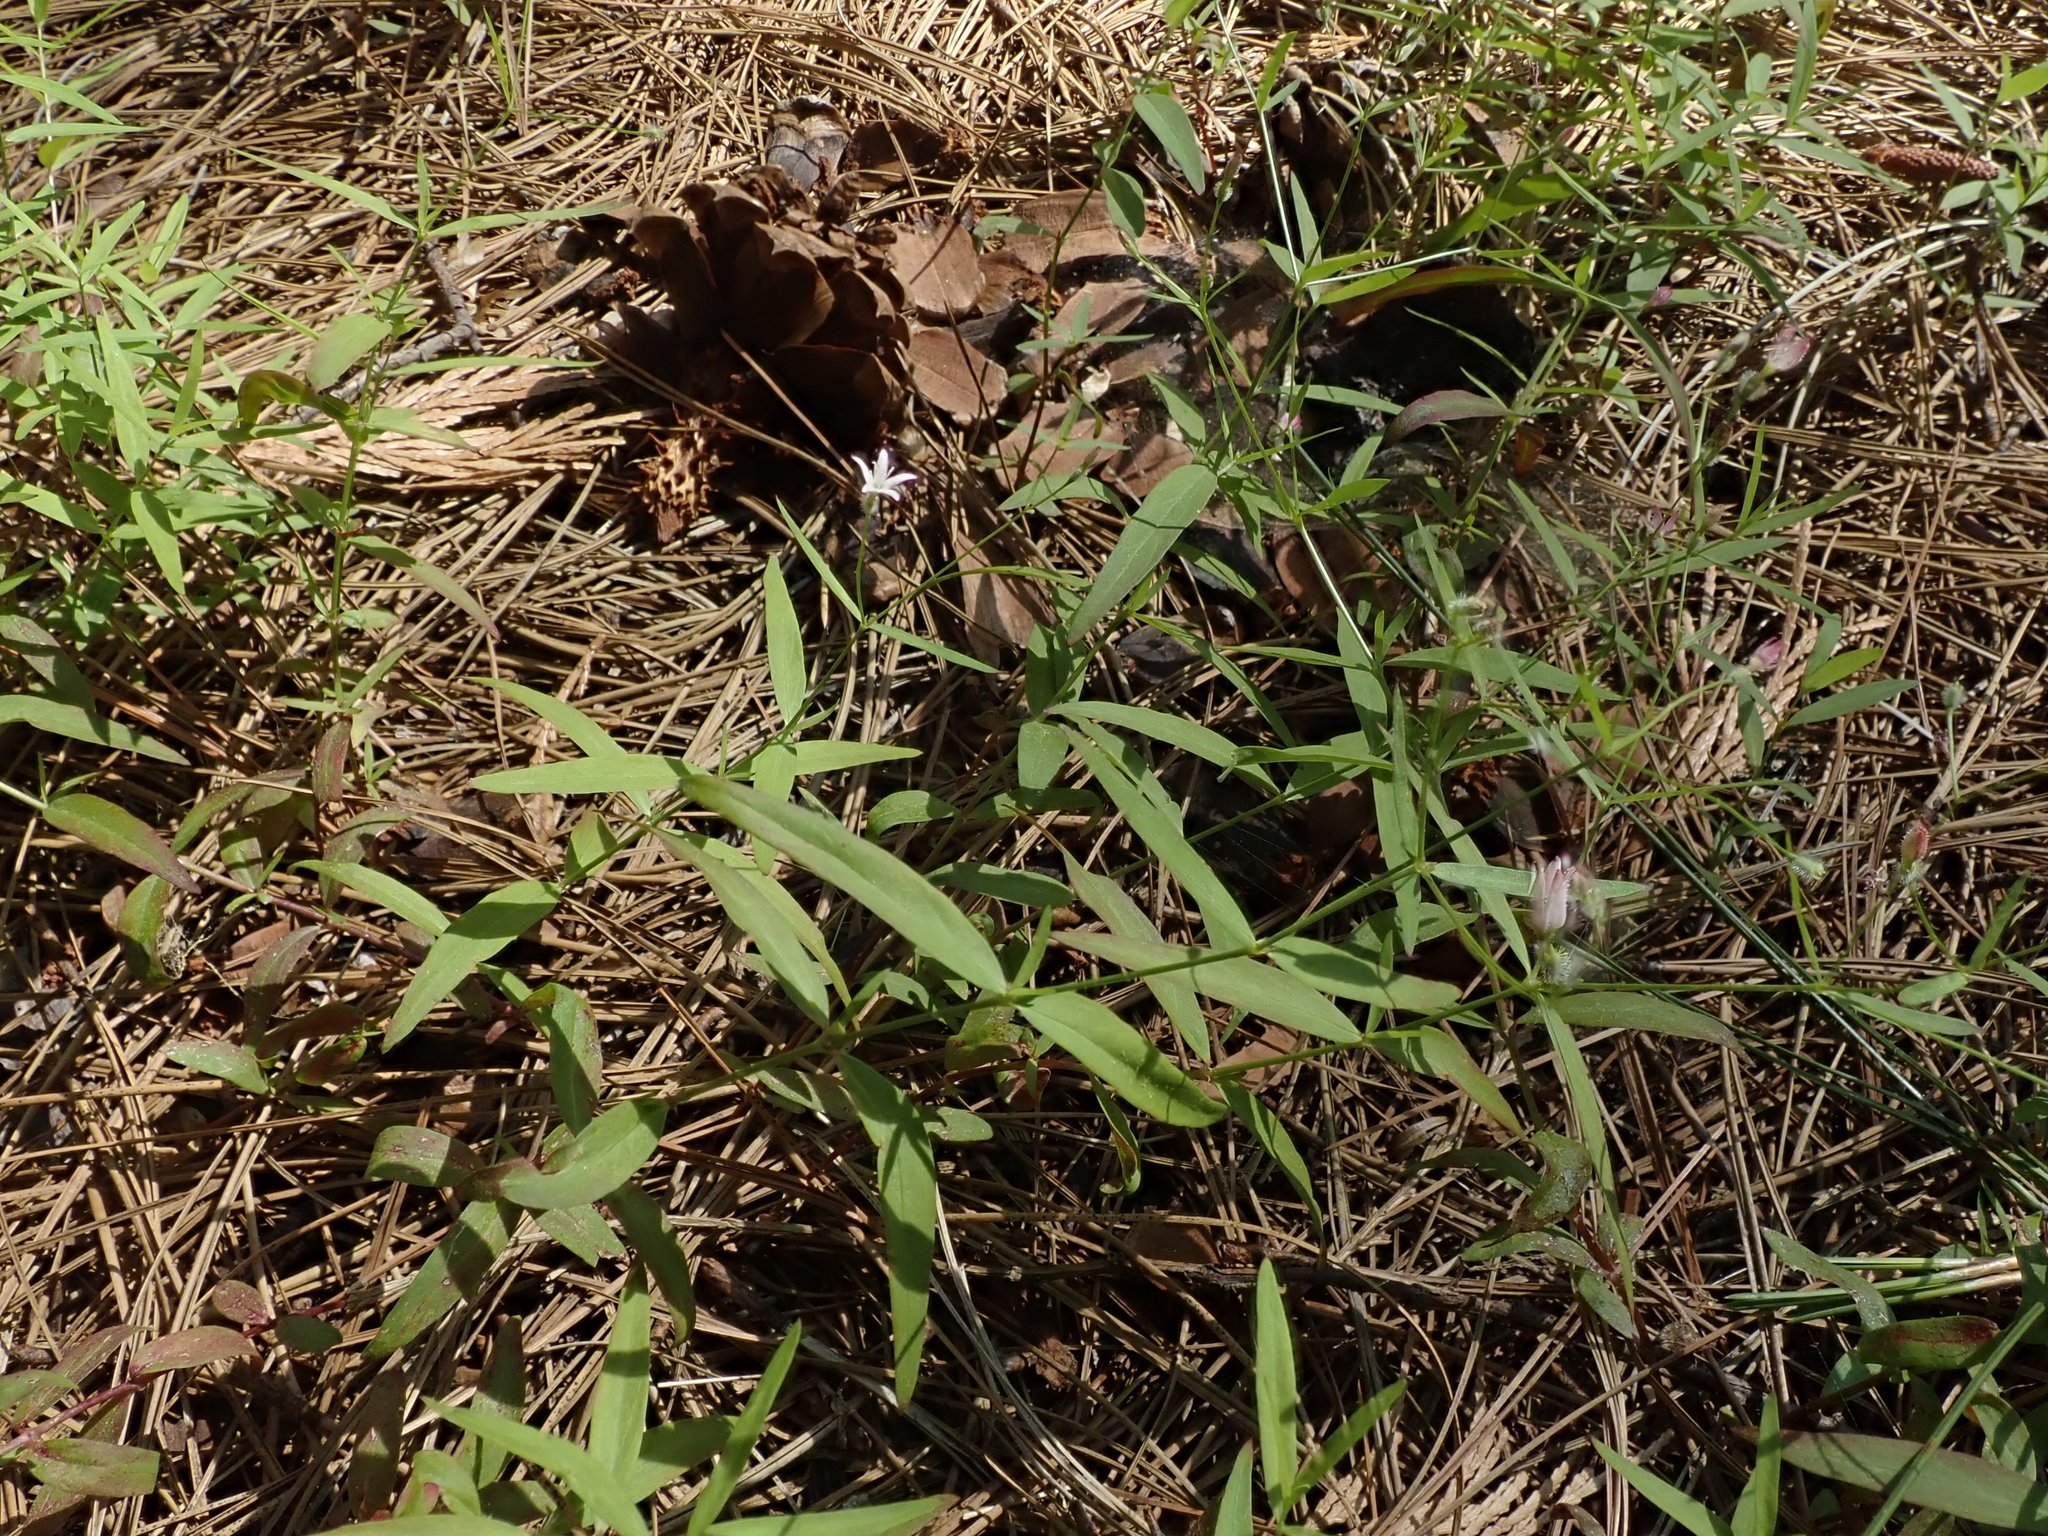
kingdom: Plantae
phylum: Tracheophyta
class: Magnoliopsida
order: Gentianales
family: Rubiaceae
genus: Kelloggia
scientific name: Kelloggia galioides
